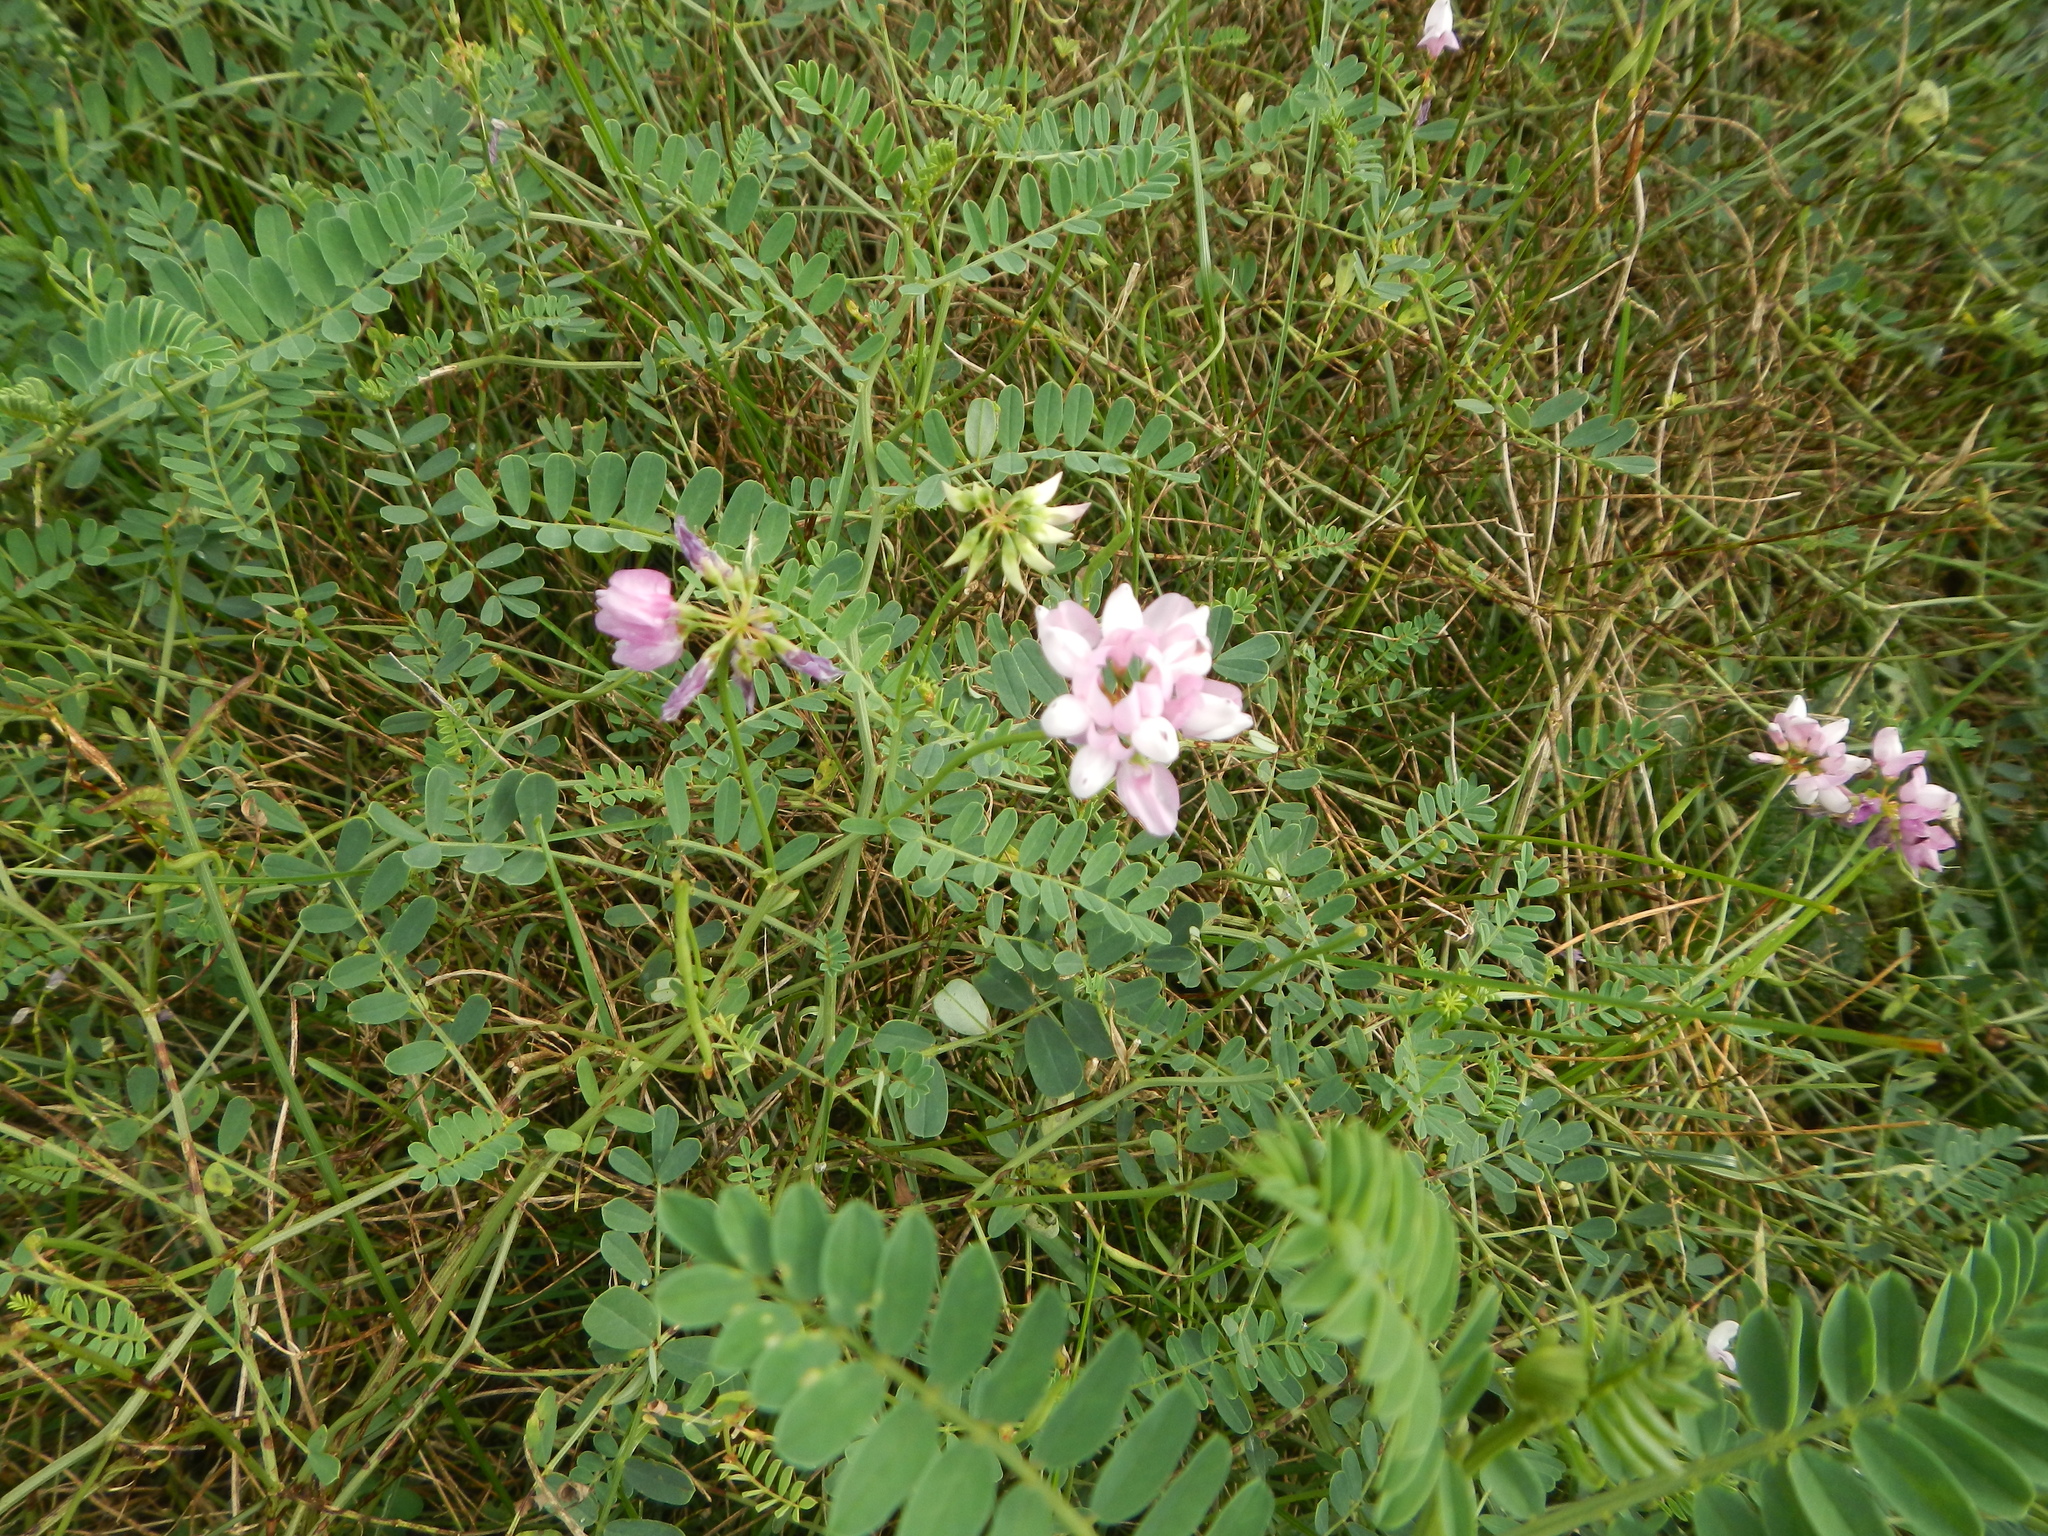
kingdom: Plantae
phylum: Tracheophyta
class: Magnoliopsida
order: Fabales
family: Fabaceae
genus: Coronilla
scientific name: Coronilla varia
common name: Crownvetch
